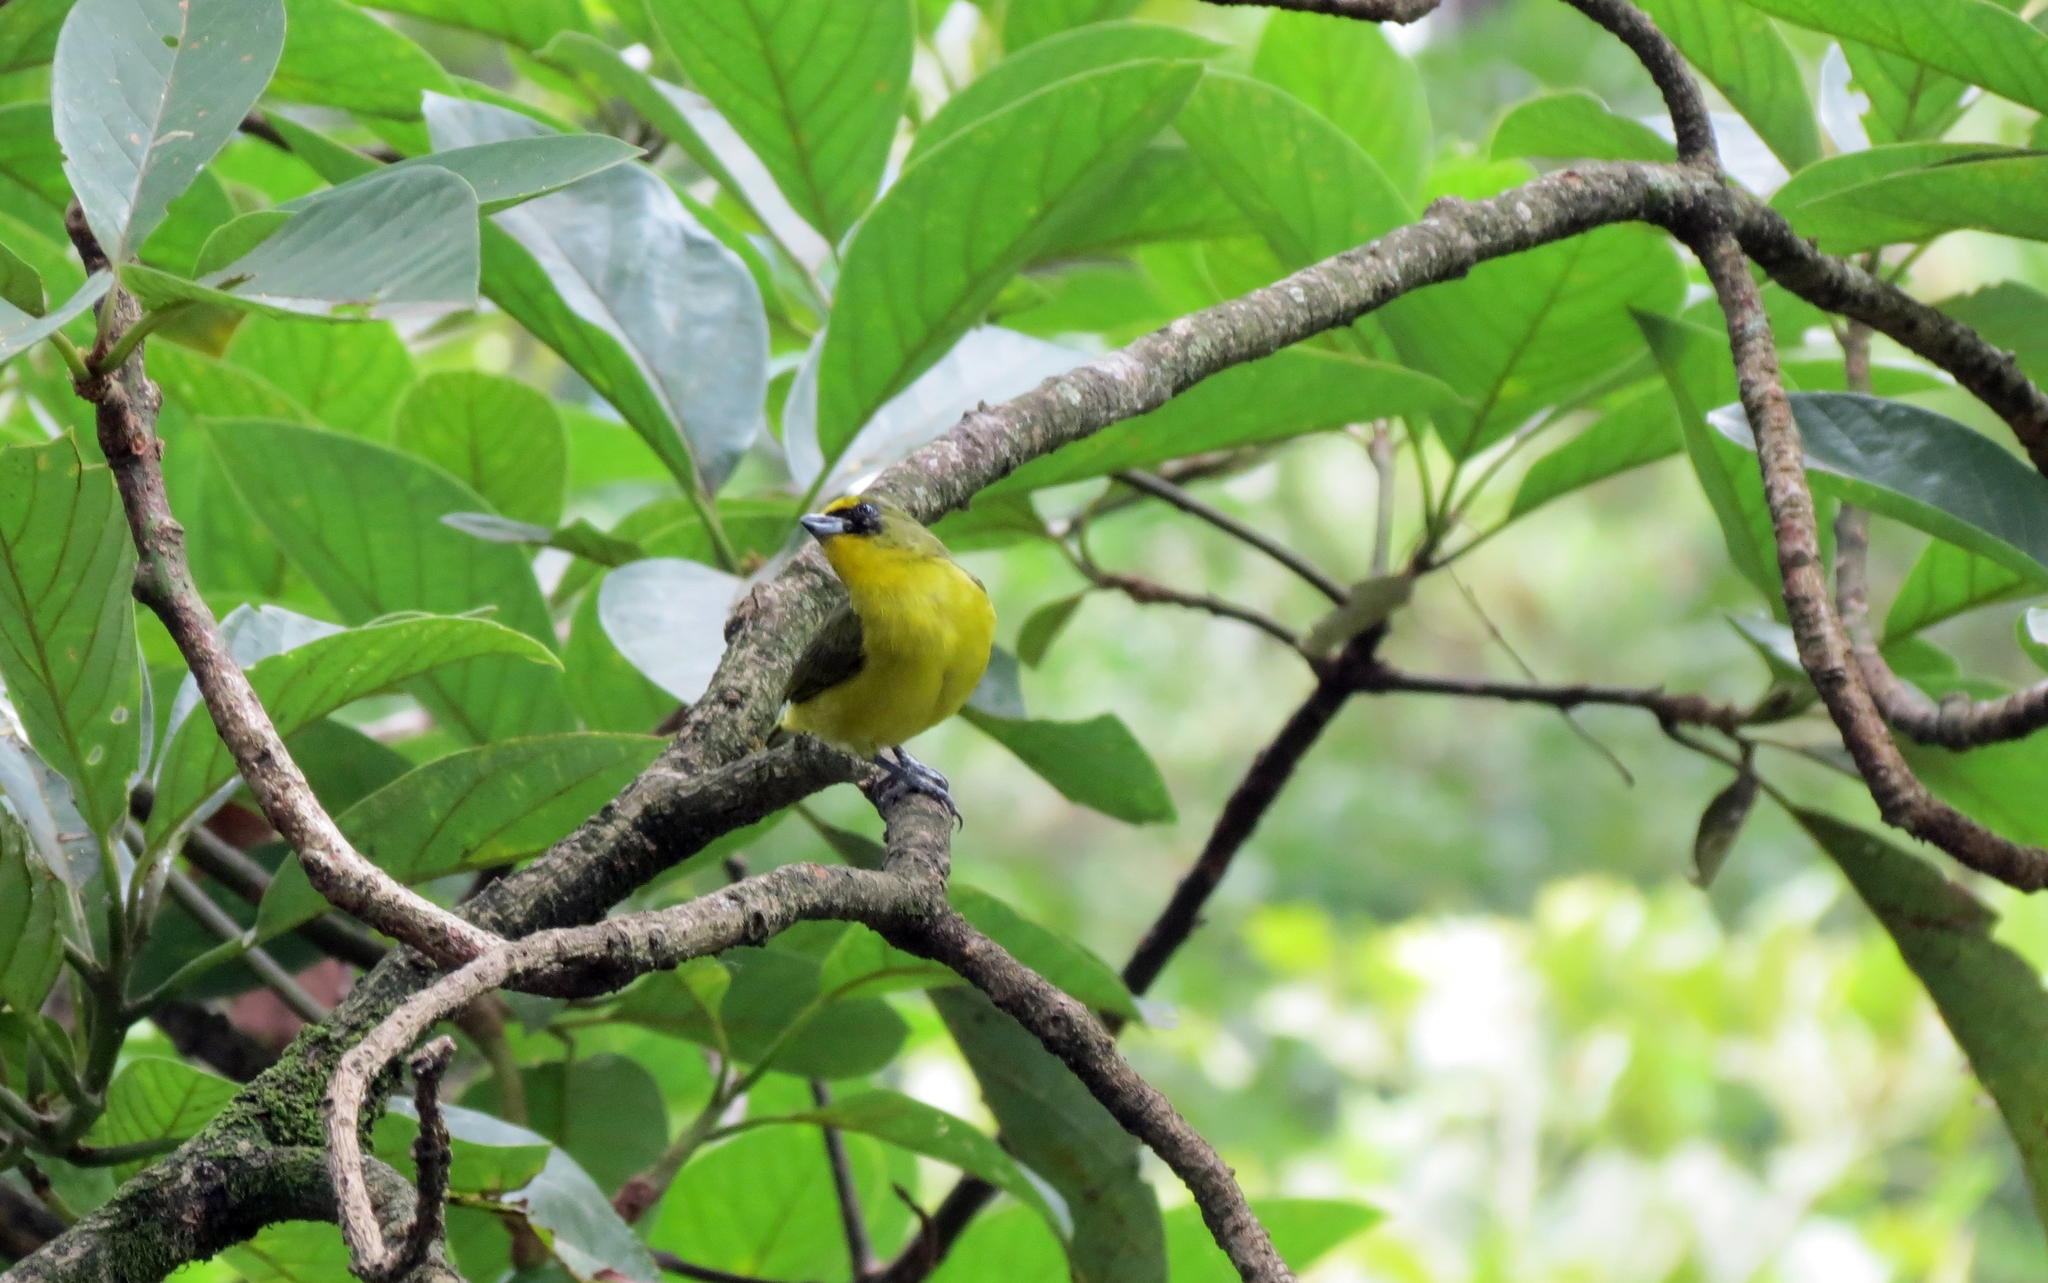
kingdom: Animalia
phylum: Chordata
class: Aves
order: Passeriformes
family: Fringillidae
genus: Euphonia
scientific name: Euphonia laniirostris
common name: Thick-billed euphonia
